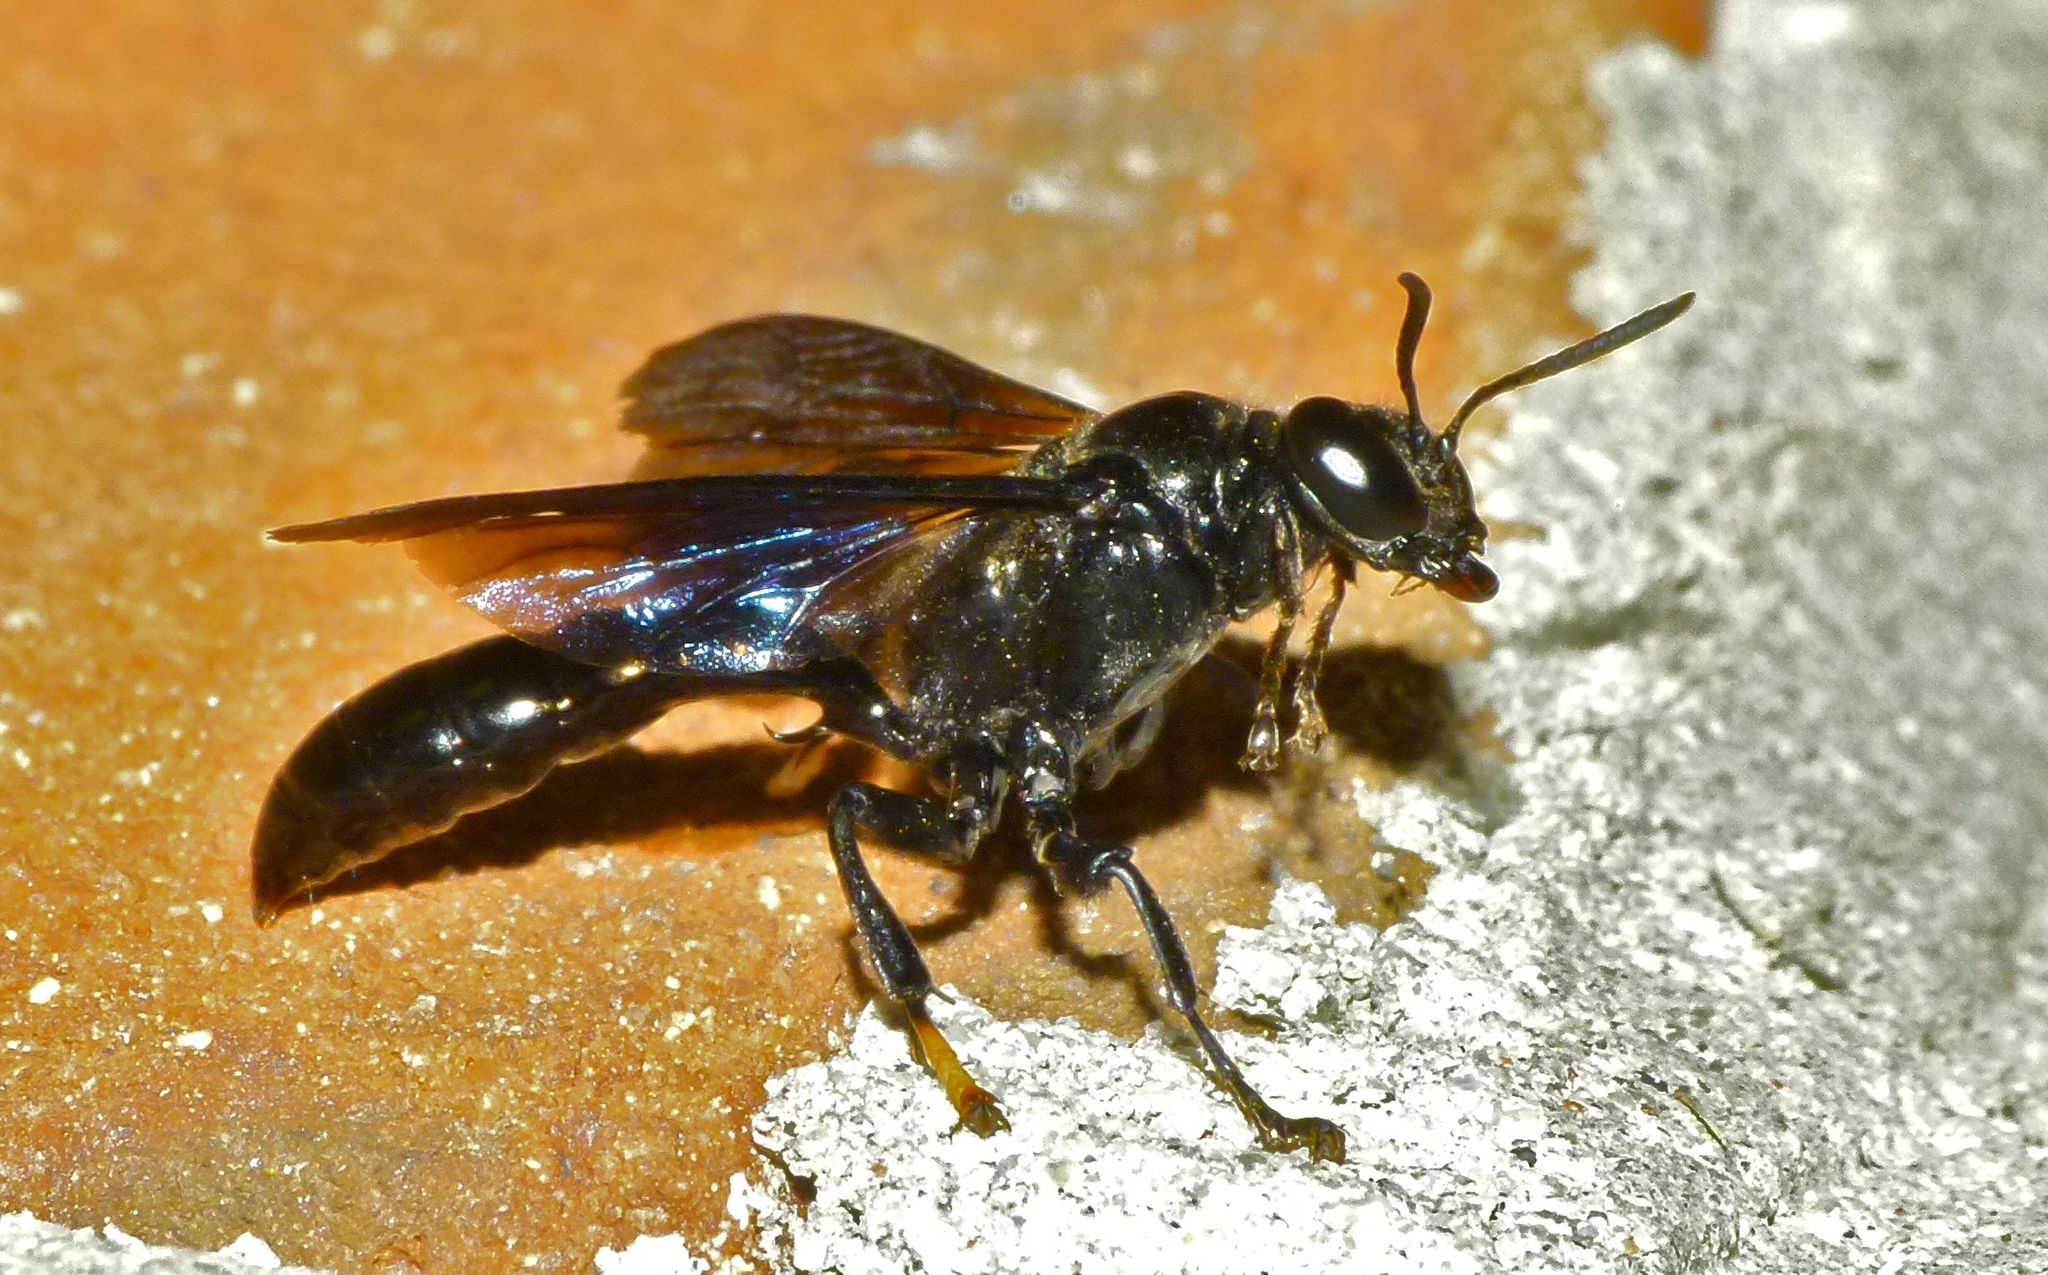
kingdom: Animalia
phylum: Arthropoda
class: Insecta
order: Hymenoptera
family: Crabronidae
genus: Trypoxylon
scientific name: Trypoxylon politum
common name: Organ-pipe mud-dauber wasp
